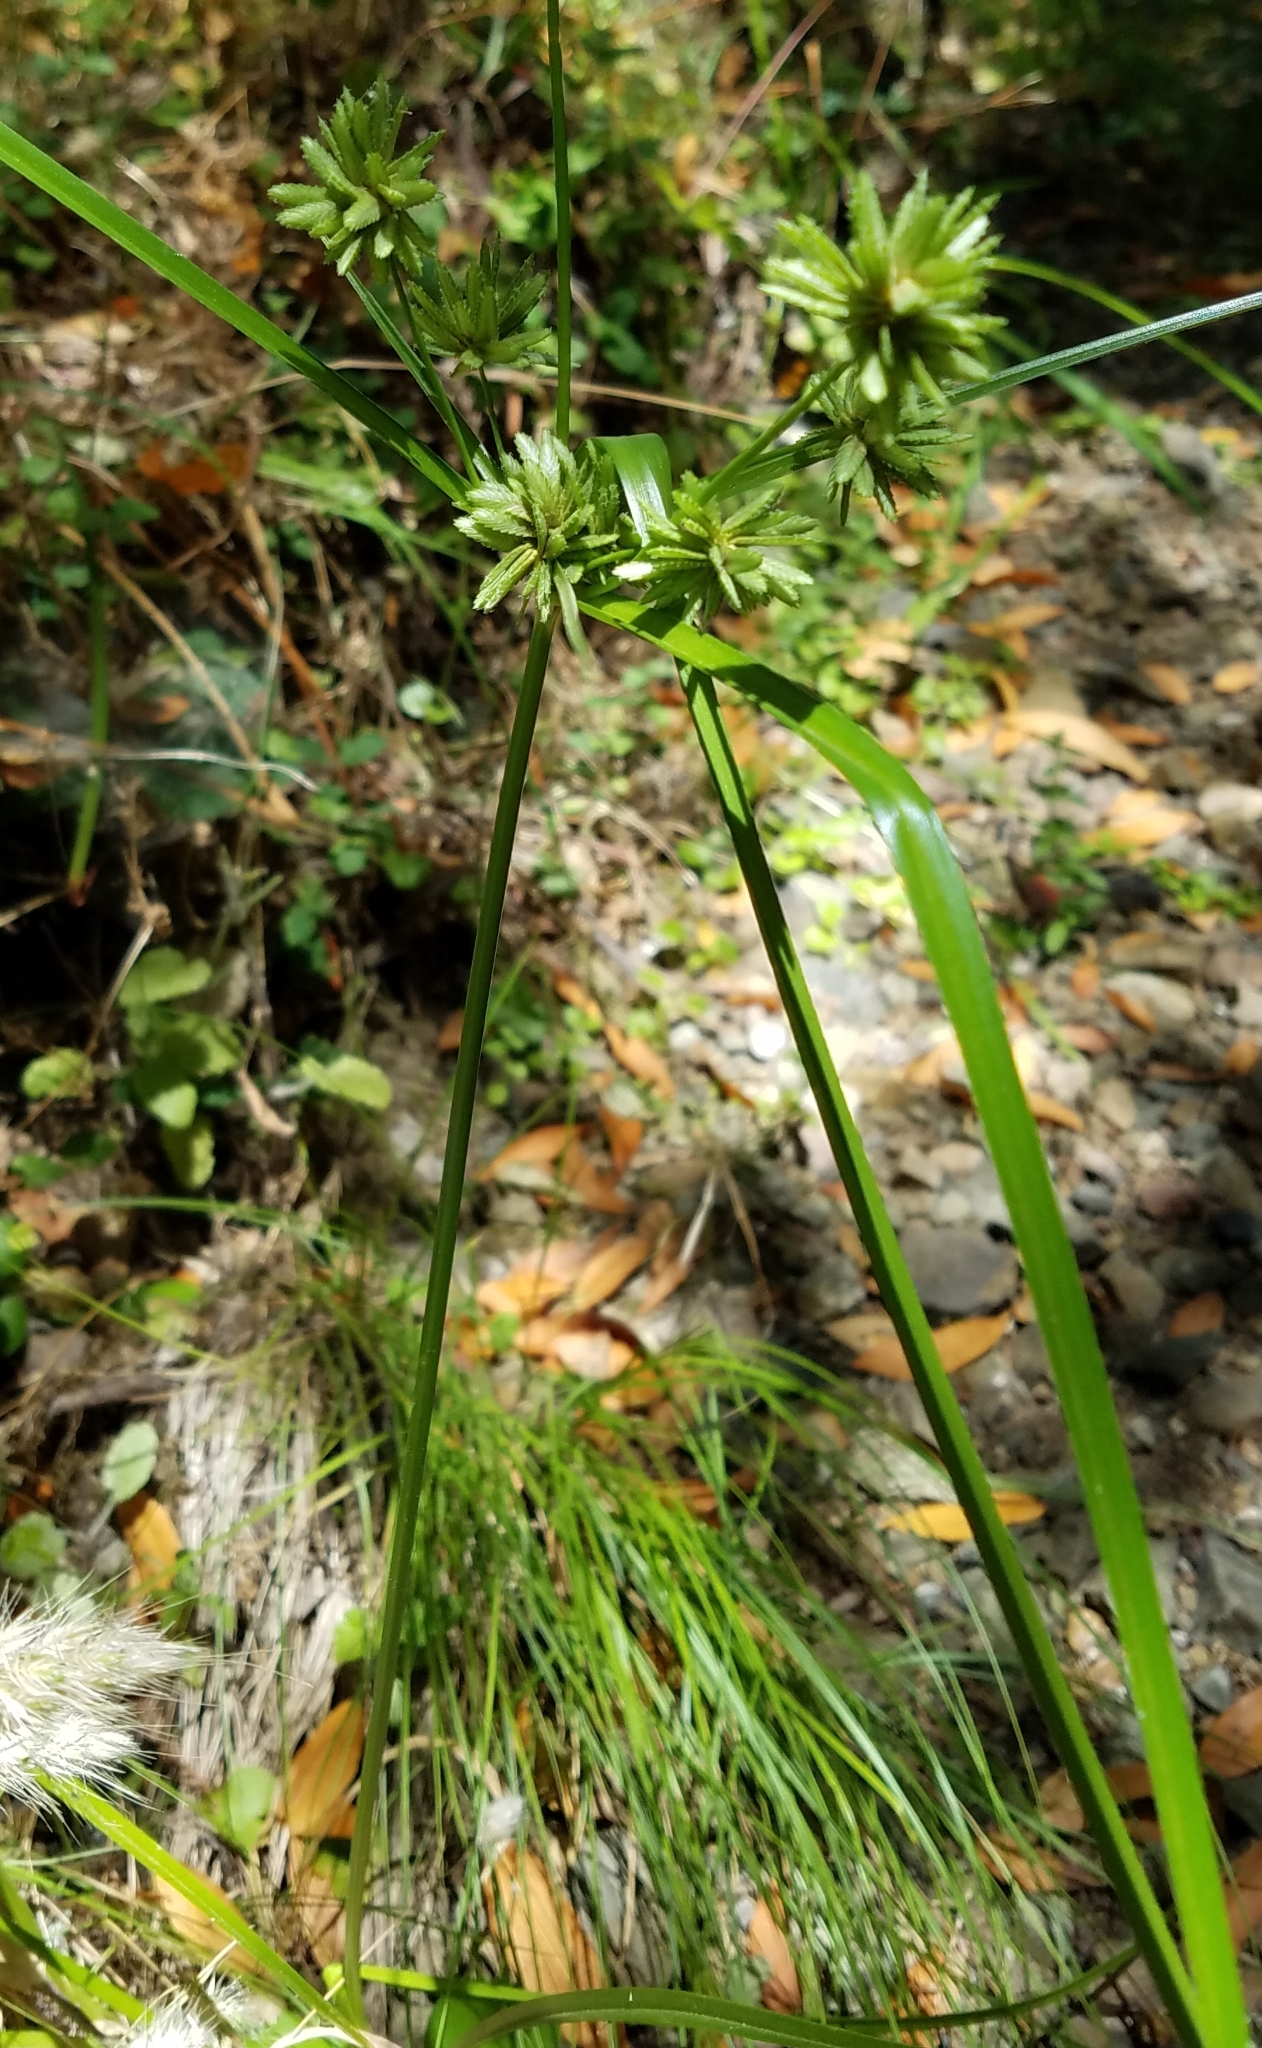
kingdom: Plantae
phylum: Tracheophyta
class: Liliopsida
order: Poales
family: Cyperaceae
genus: Cyperus
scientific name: Cyperus eragrostis
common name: Tall flatsedge
